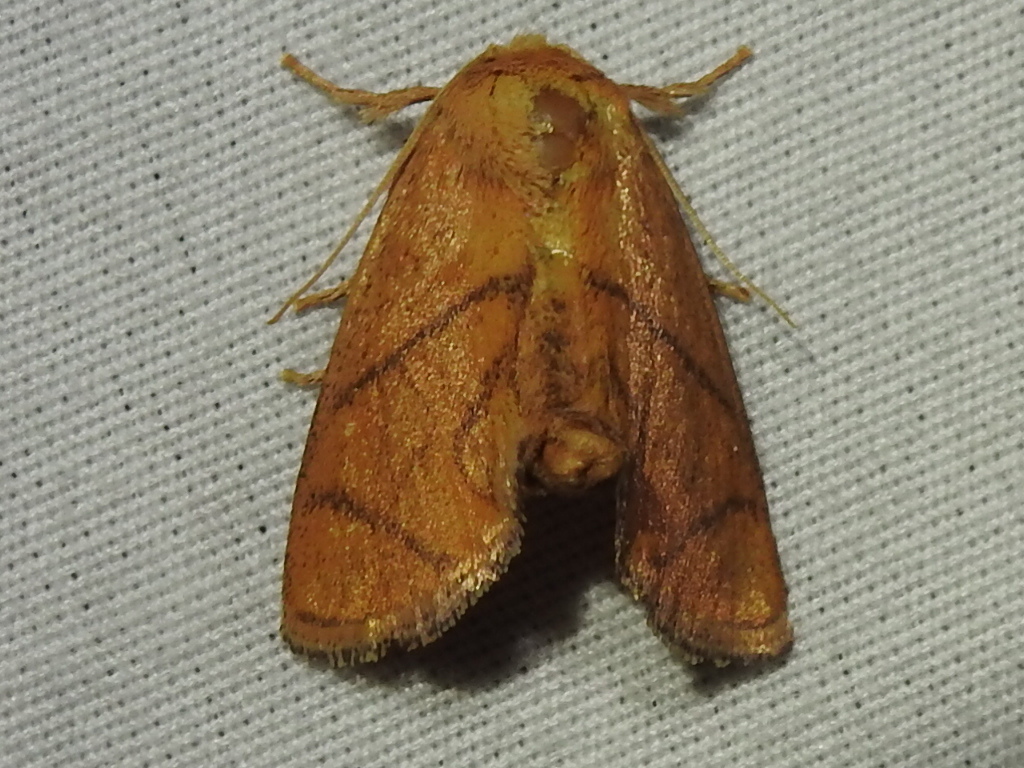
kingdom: Animalia
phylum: Arthropoda
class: Insecta
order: Lepidoptera
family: Limacodidae
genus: Apoda
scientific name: Apoda y-inversa
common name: Yellow-collared slug moth
